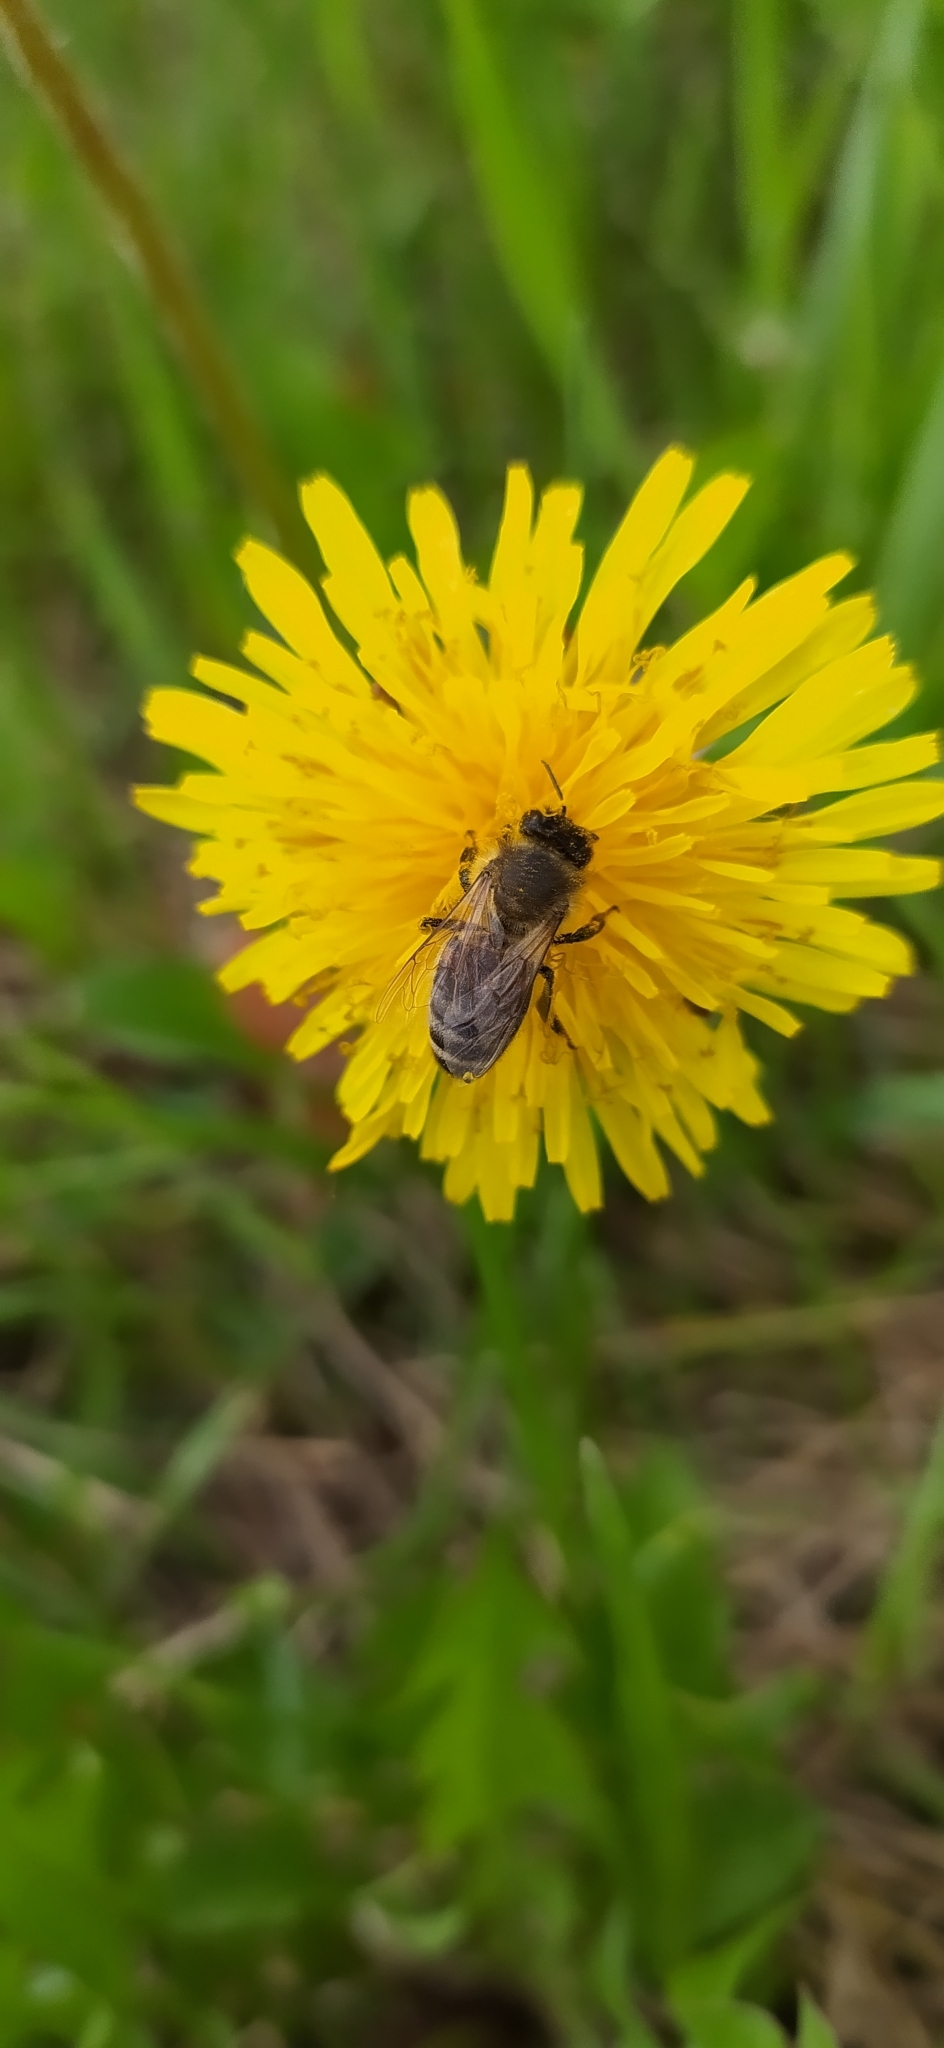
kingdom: Animalia
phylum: Arthropoda
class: Insecta
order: Hymenoptera
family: Apidae
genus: Apis
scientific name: Apis mellifera
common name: Honey bee
